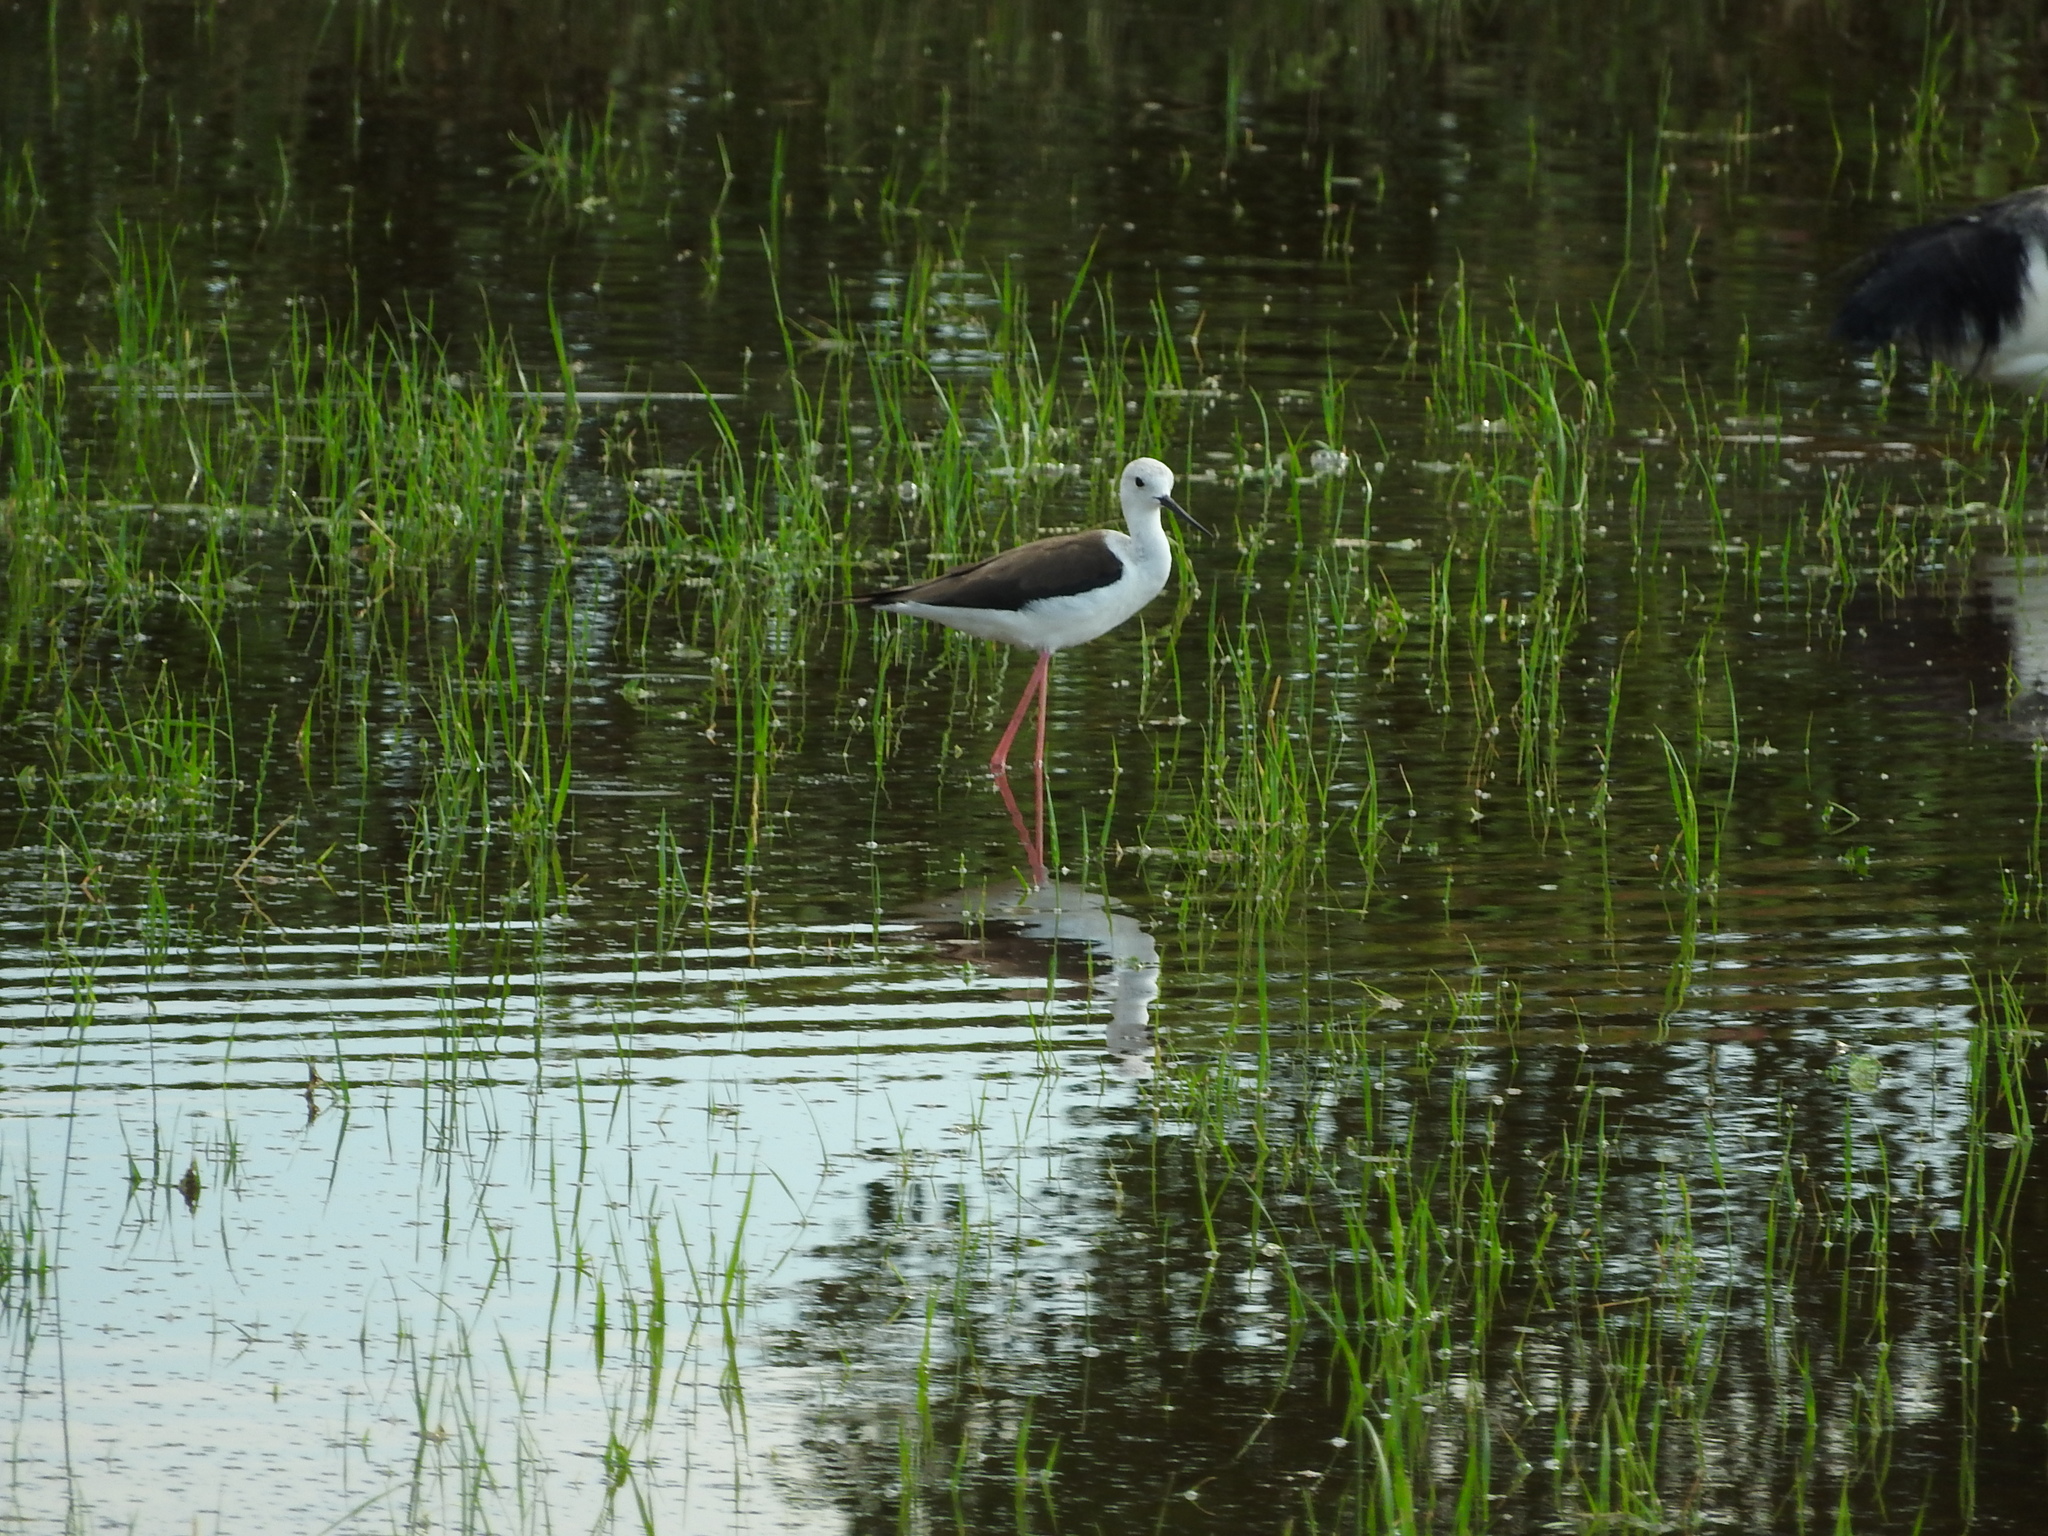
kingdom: Animalia
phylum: Chordata
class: Aves
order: Charadriiformes
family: Recurvirostridae
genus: Himantopus
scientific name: Himantopus himantopus
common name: Black-winged stilt
